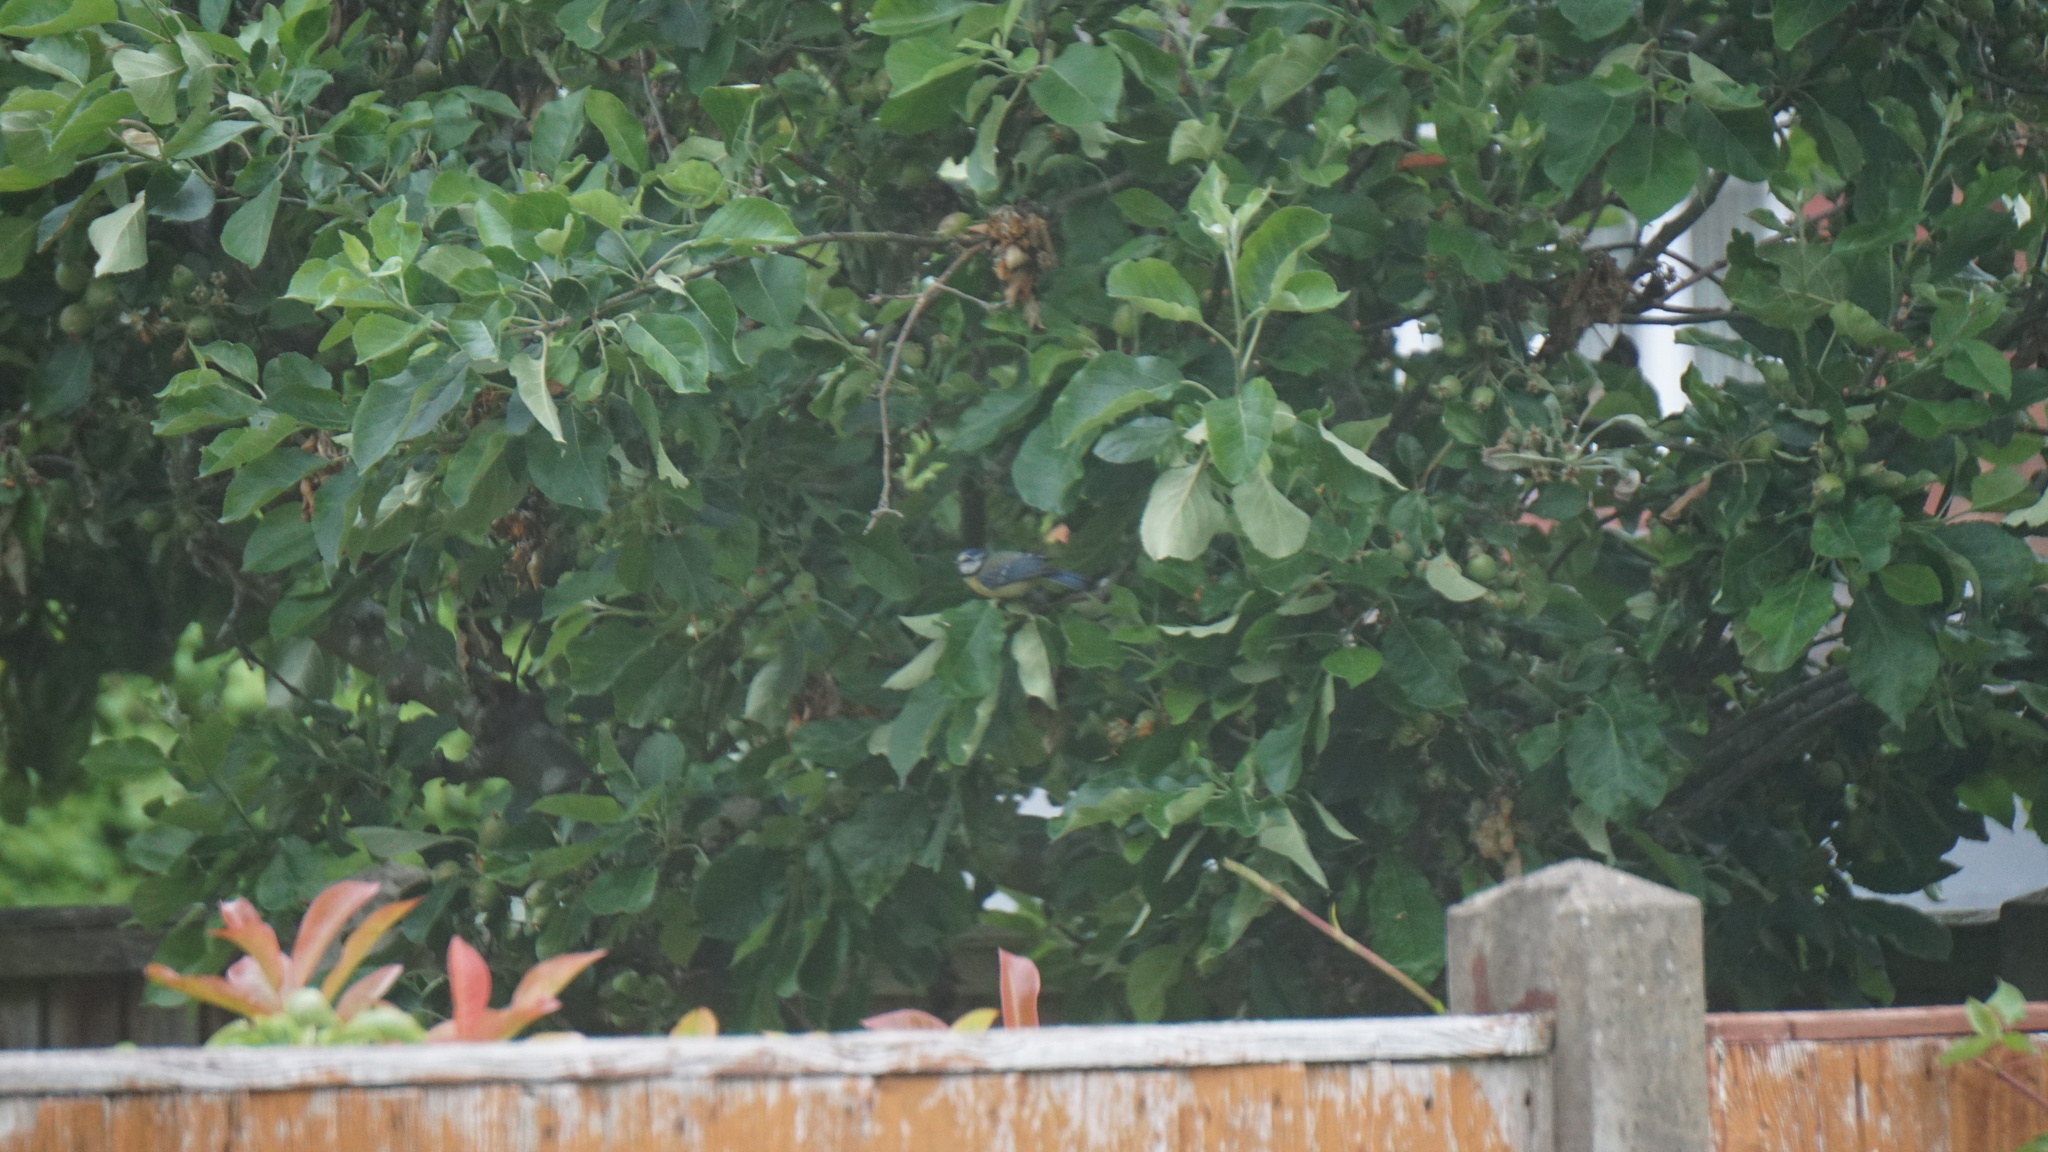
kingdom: Animalia
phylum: Chordata
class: Aves
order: Passeriformes
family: Paridae
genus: Cyanistes
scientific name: Cyanistes caeruleus
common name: Eurasian blue tit
